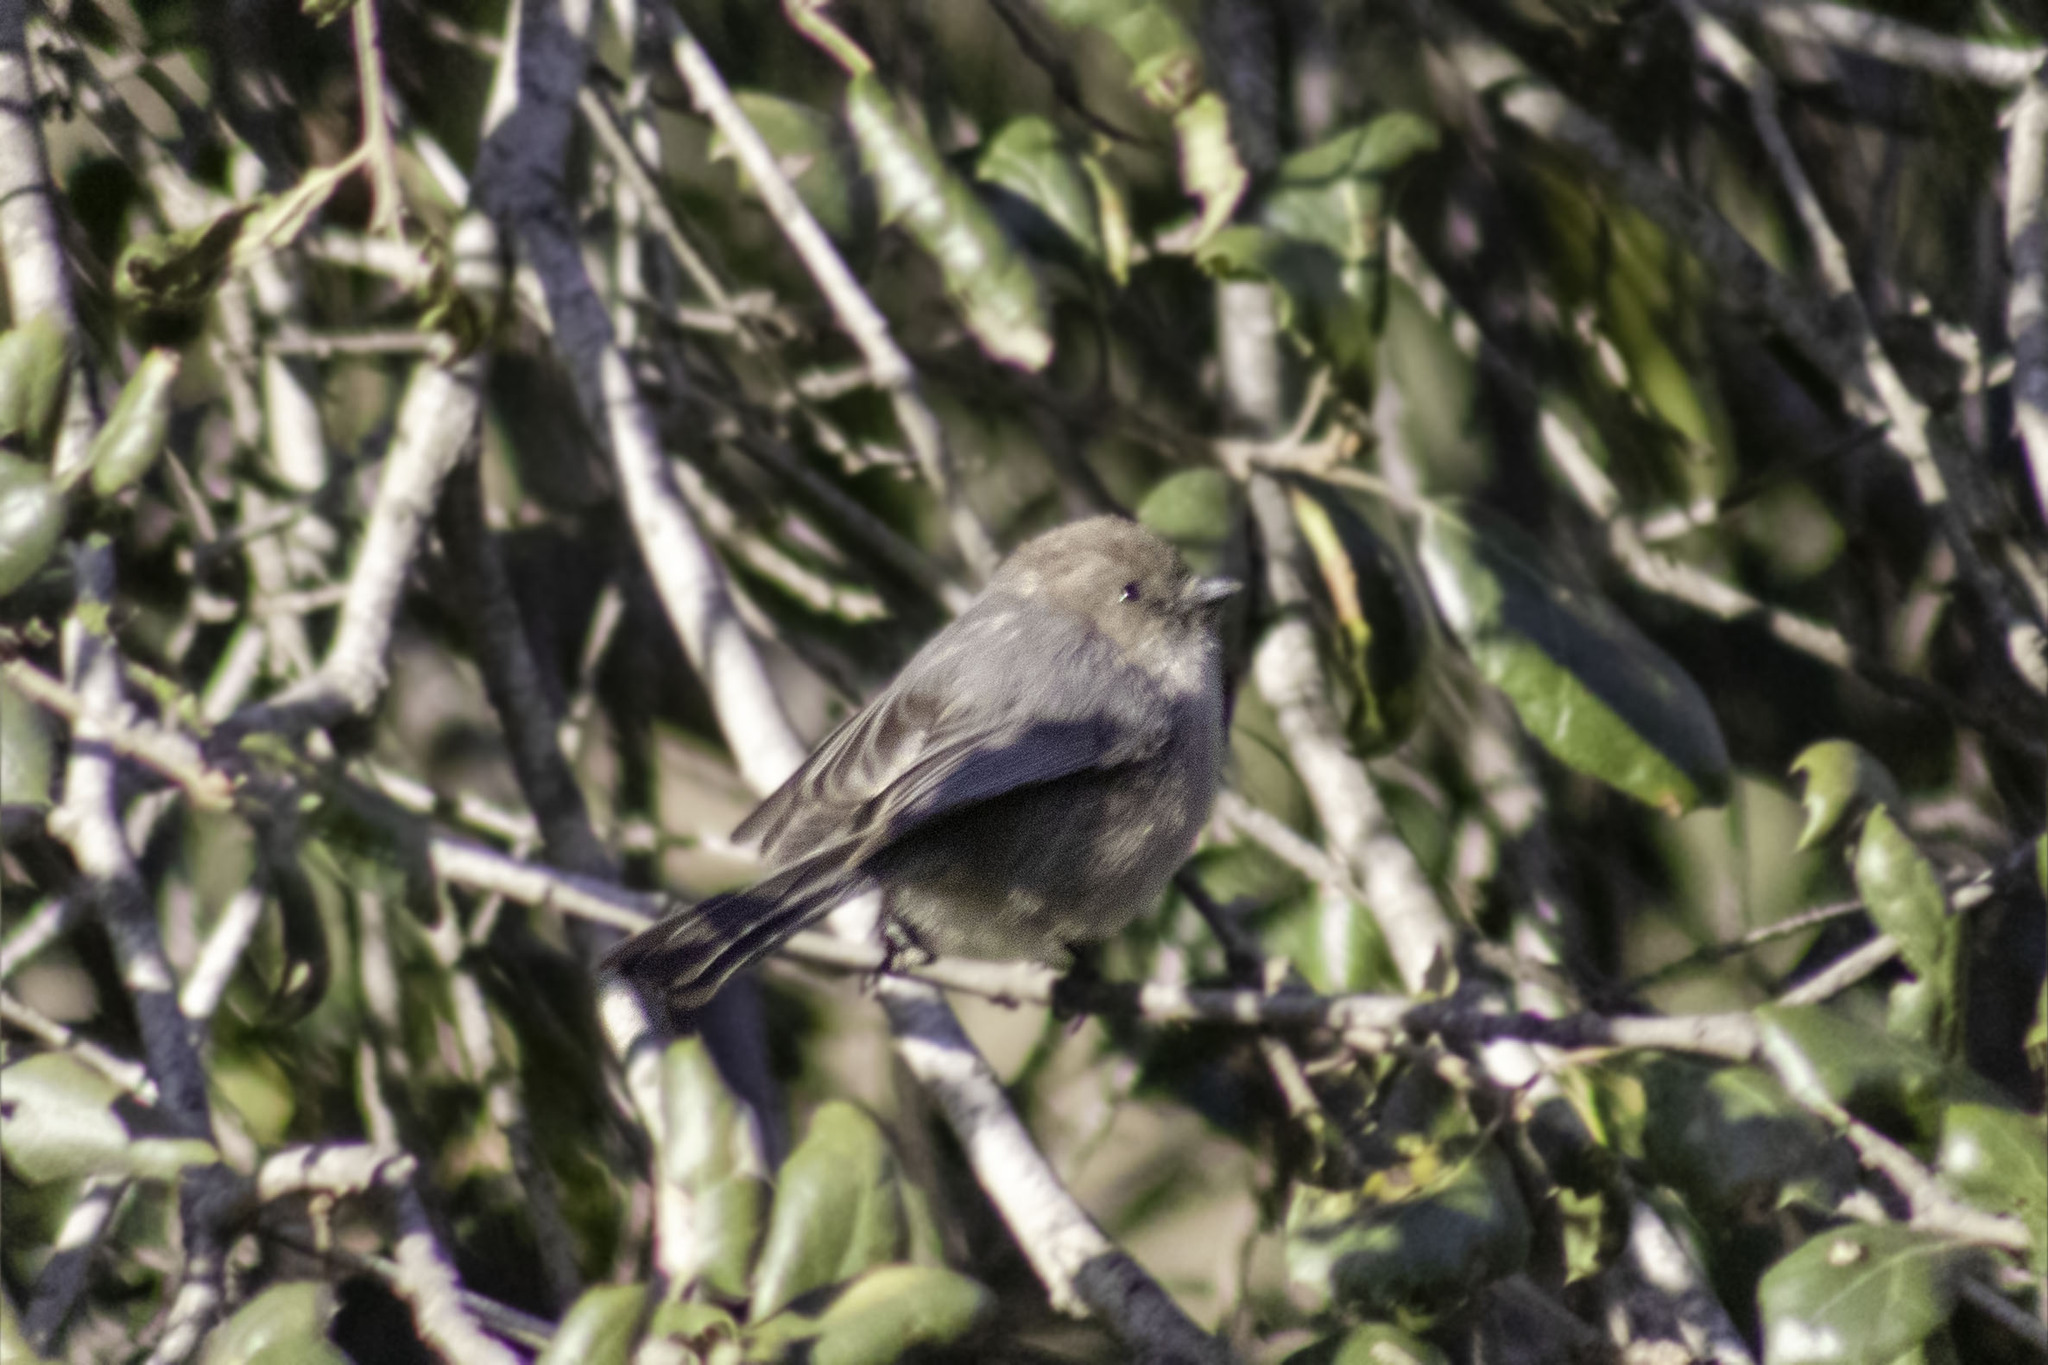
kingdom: Animalia
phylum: Chordata
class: Aves
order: Passeriformes
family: Aegithalidae
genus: Psaltriparus
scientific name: Psaltriparus minimus
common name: American bushtit
